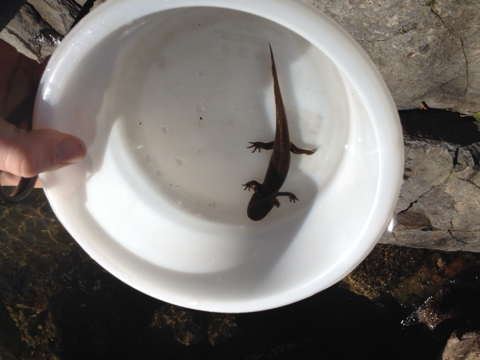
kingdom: Animalia
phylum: Chordata
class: Amphibia
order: Caudata
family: Ambystomatidae
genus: Dicamptodon
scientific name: Dicamptodon ensatus
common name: California giant salamander
